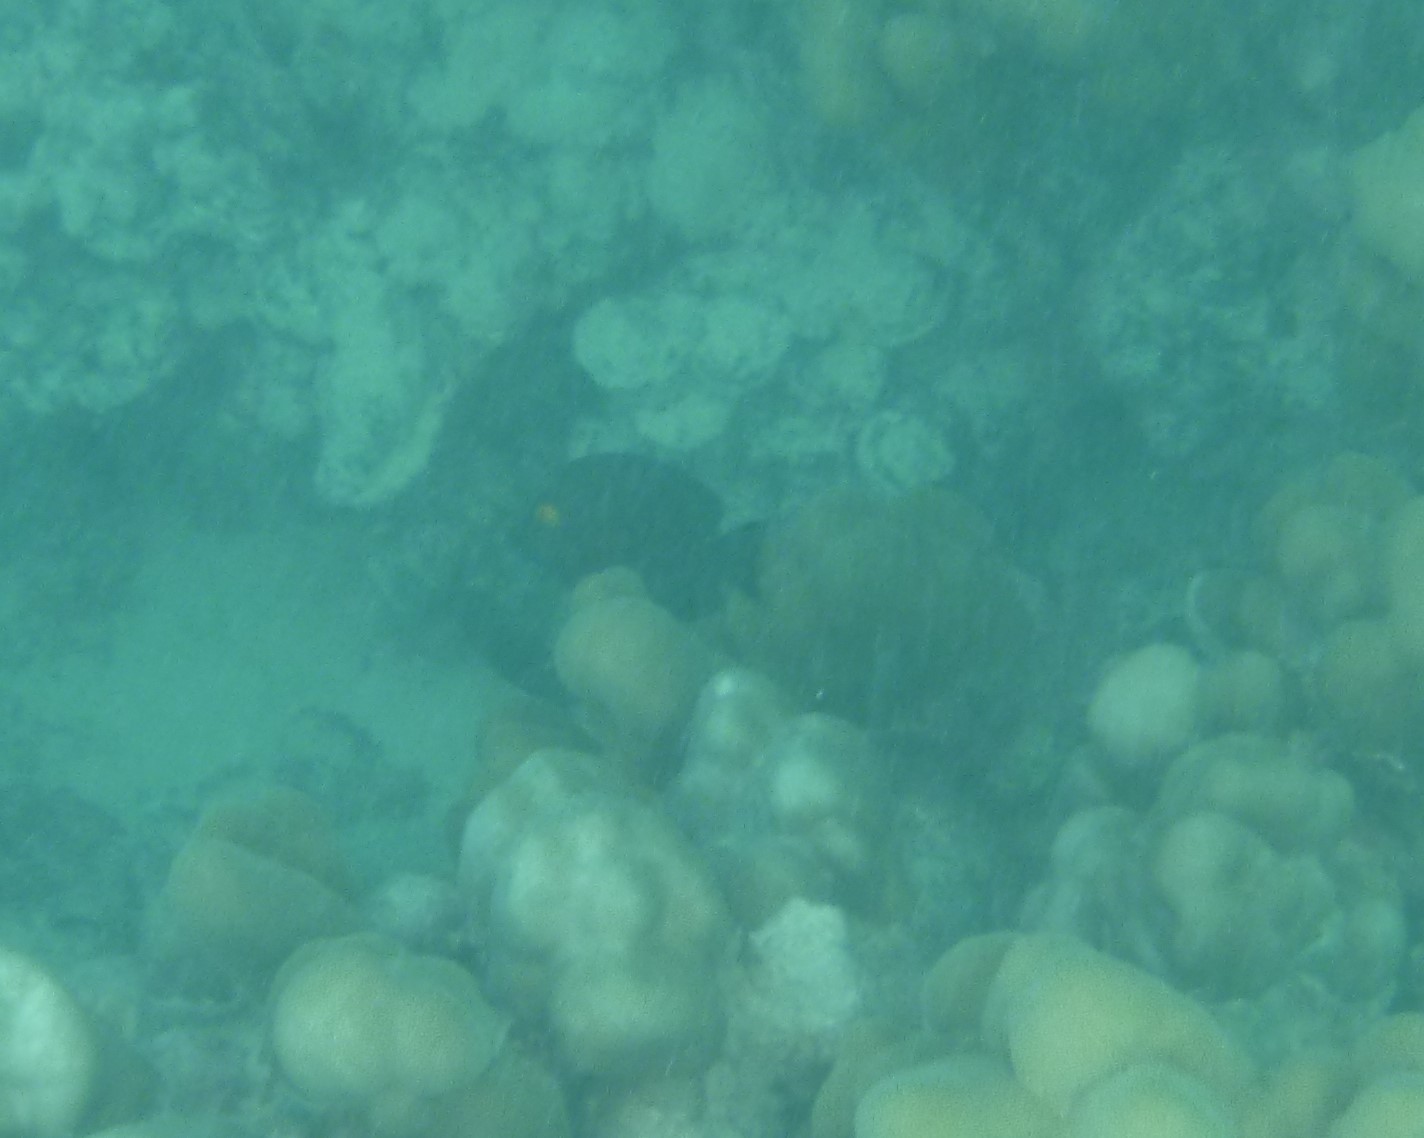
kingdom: Animalia
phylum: Chordata
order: Perciformes
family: Acanthuridae
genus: Ctenochaetus
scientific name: Ctenochaetus strigosus
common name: Bristletoothed surgeonfish
